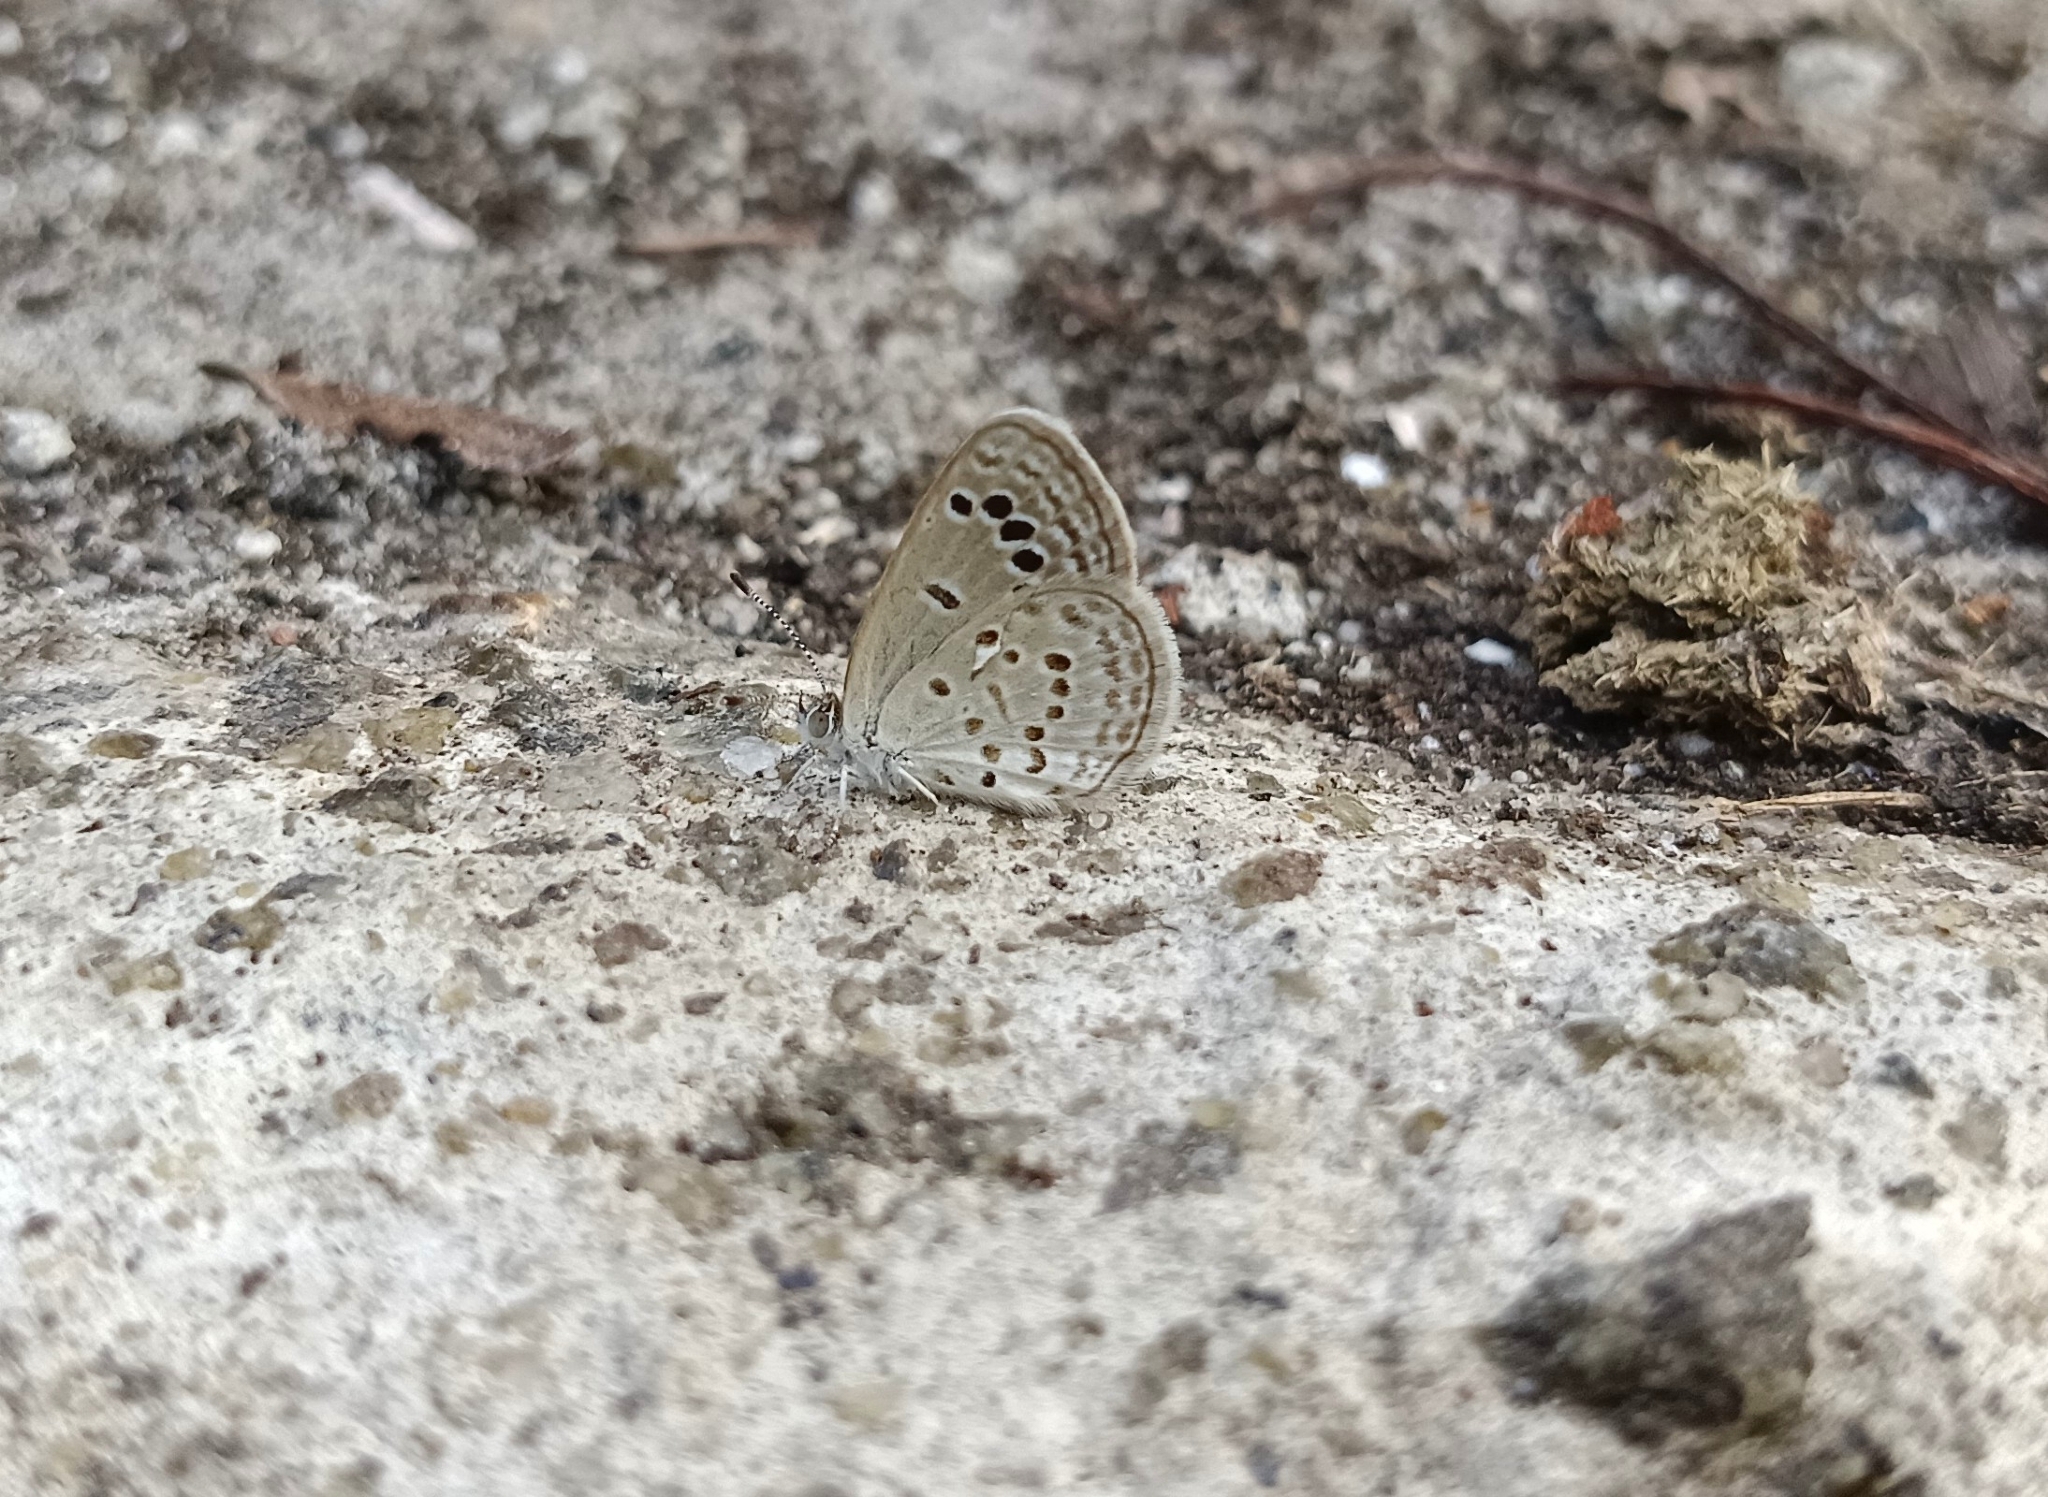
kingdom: Animalia
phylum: Arthropoda
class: Insecta
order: Lepidoptera
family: Lycaenidae
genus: Zizina
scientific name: Zizina otis
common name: Lesser grass blue
